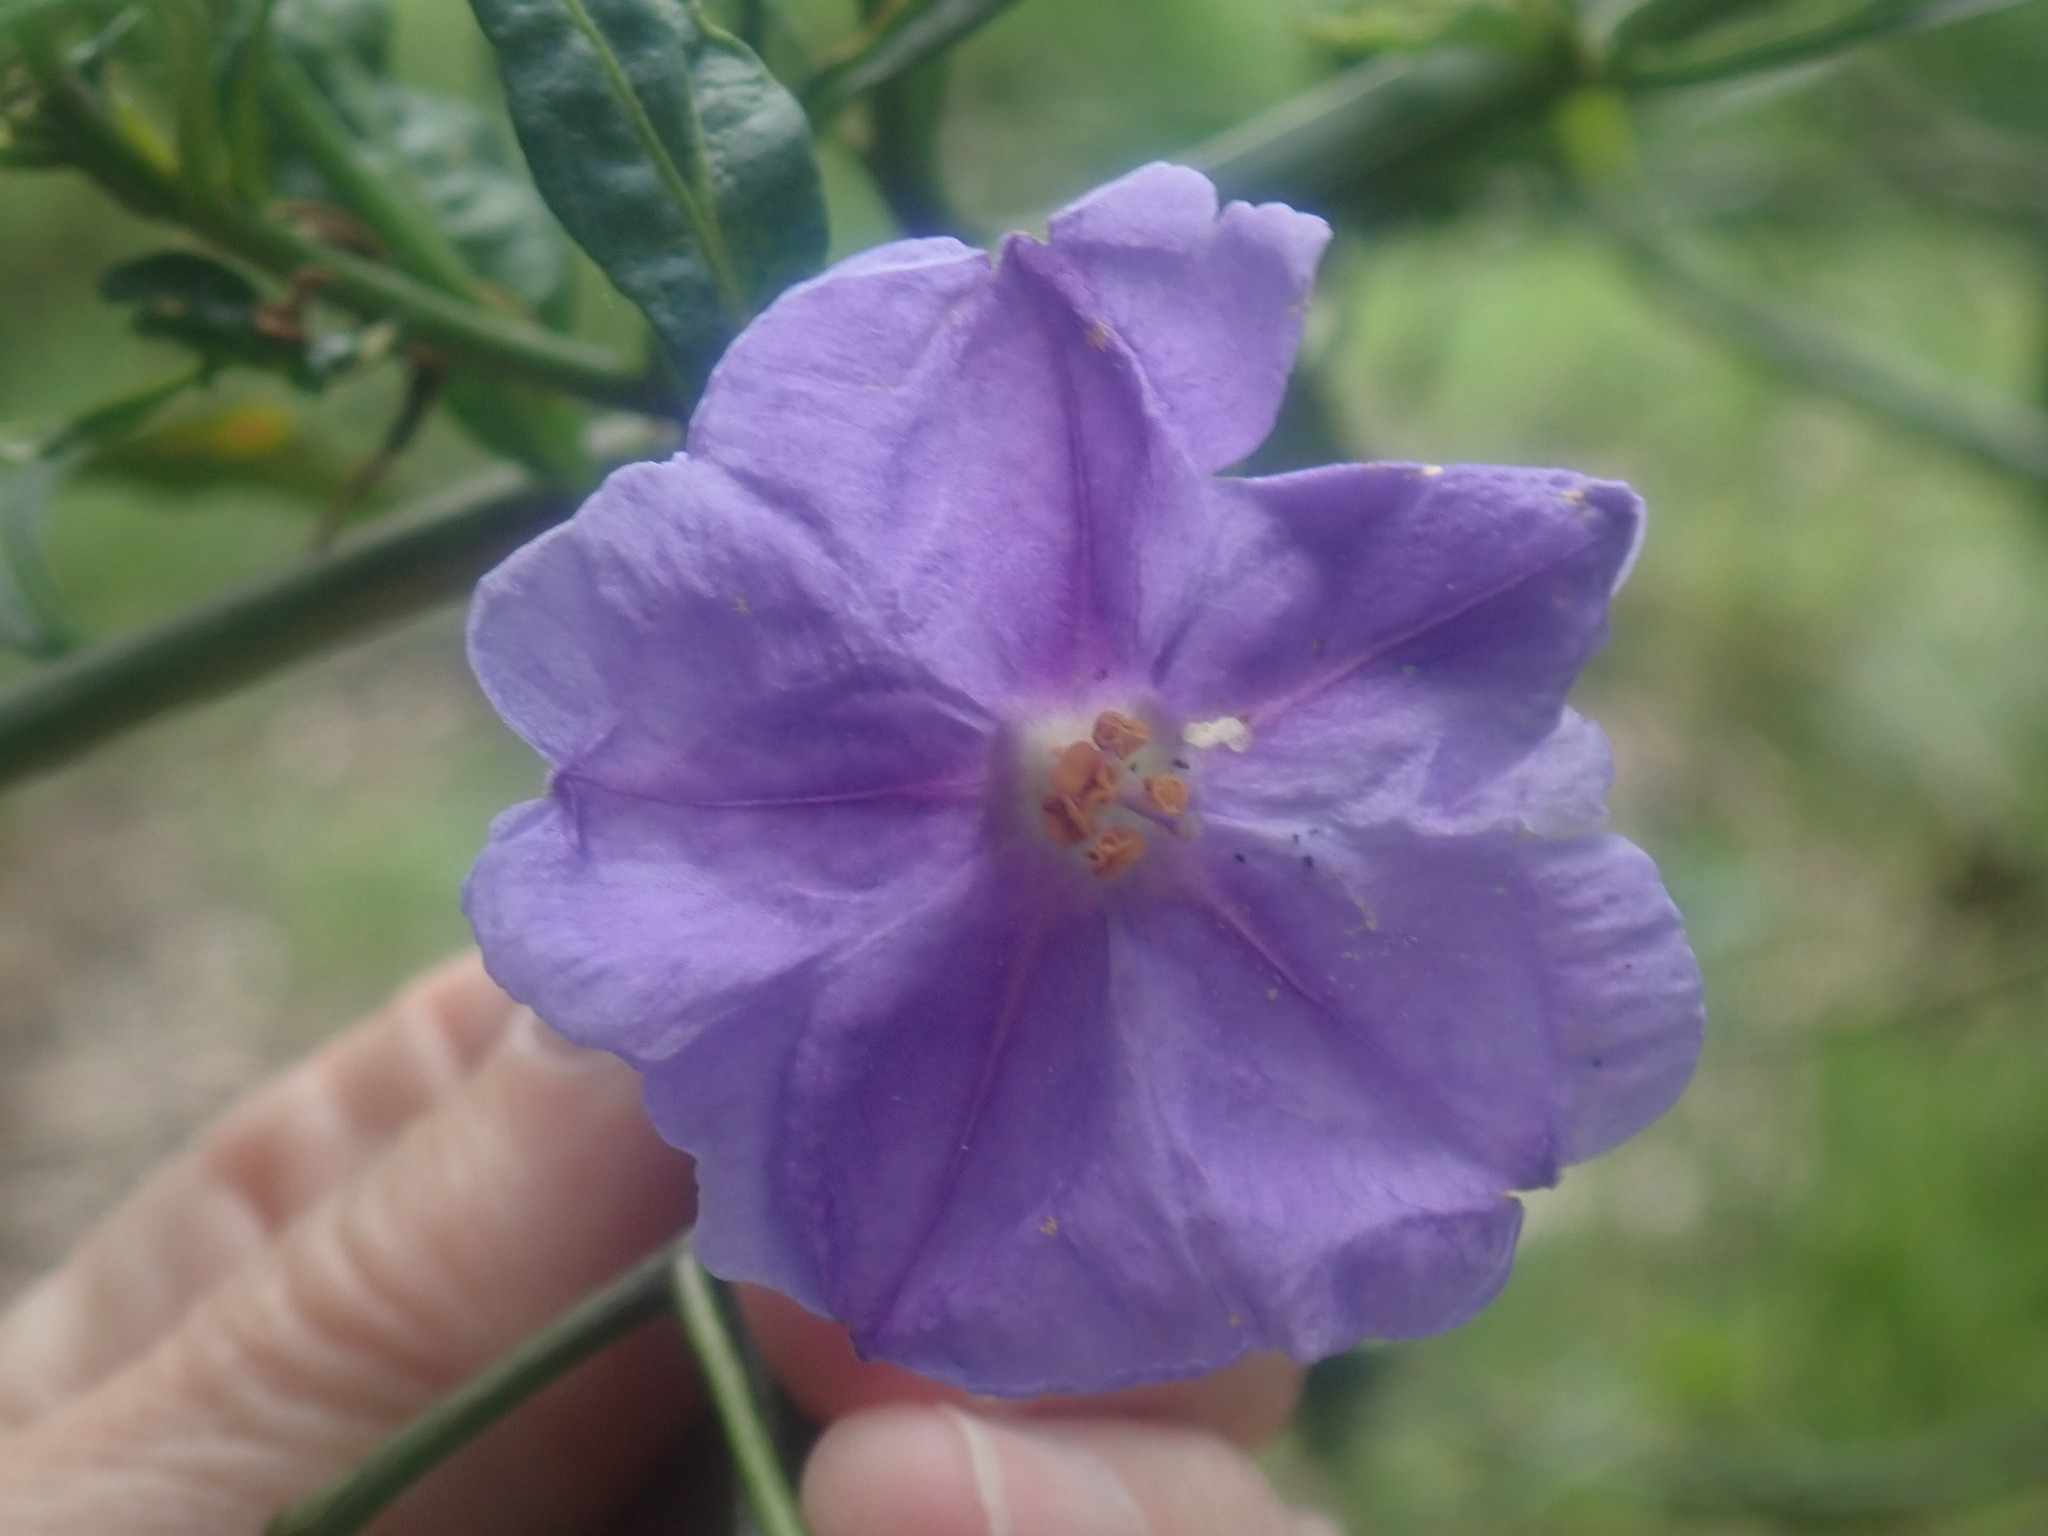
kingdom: Plantae
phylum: Tracheophyta
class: Magnoliopsida
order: Solanales
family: Solanaceae
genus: Solanum
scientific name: Solanum laciniatum
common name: Kangaroo-apple
